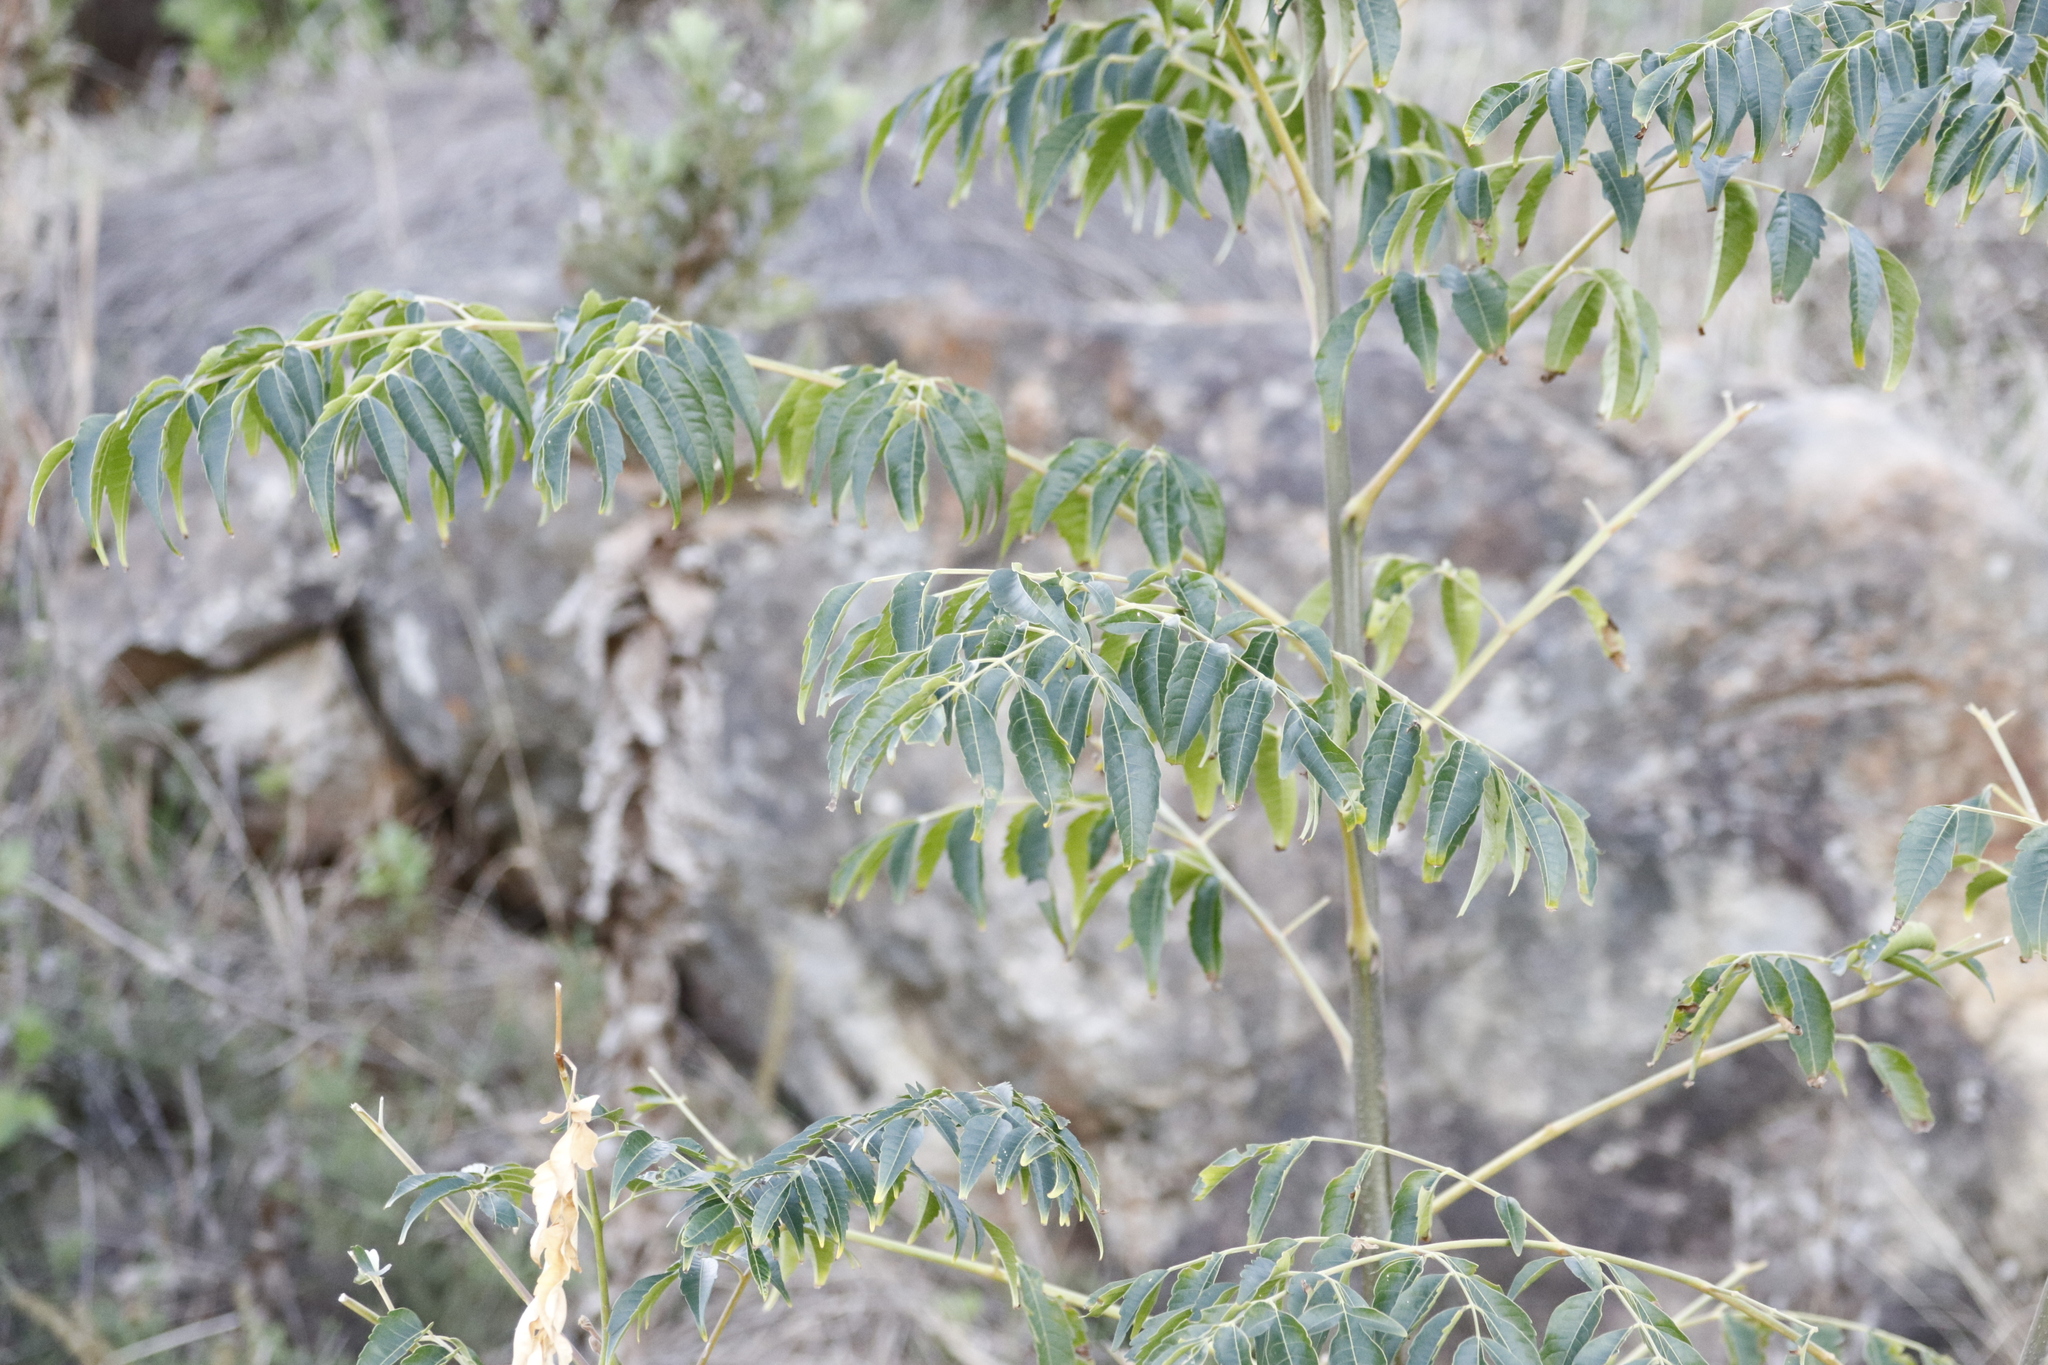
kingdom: Plantae
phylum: Tracheophyta
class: Magnoliopsida
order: Sapindales
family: Meliaceae
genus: Melia
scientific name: Melia azedarach
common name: Chinaberrytree
